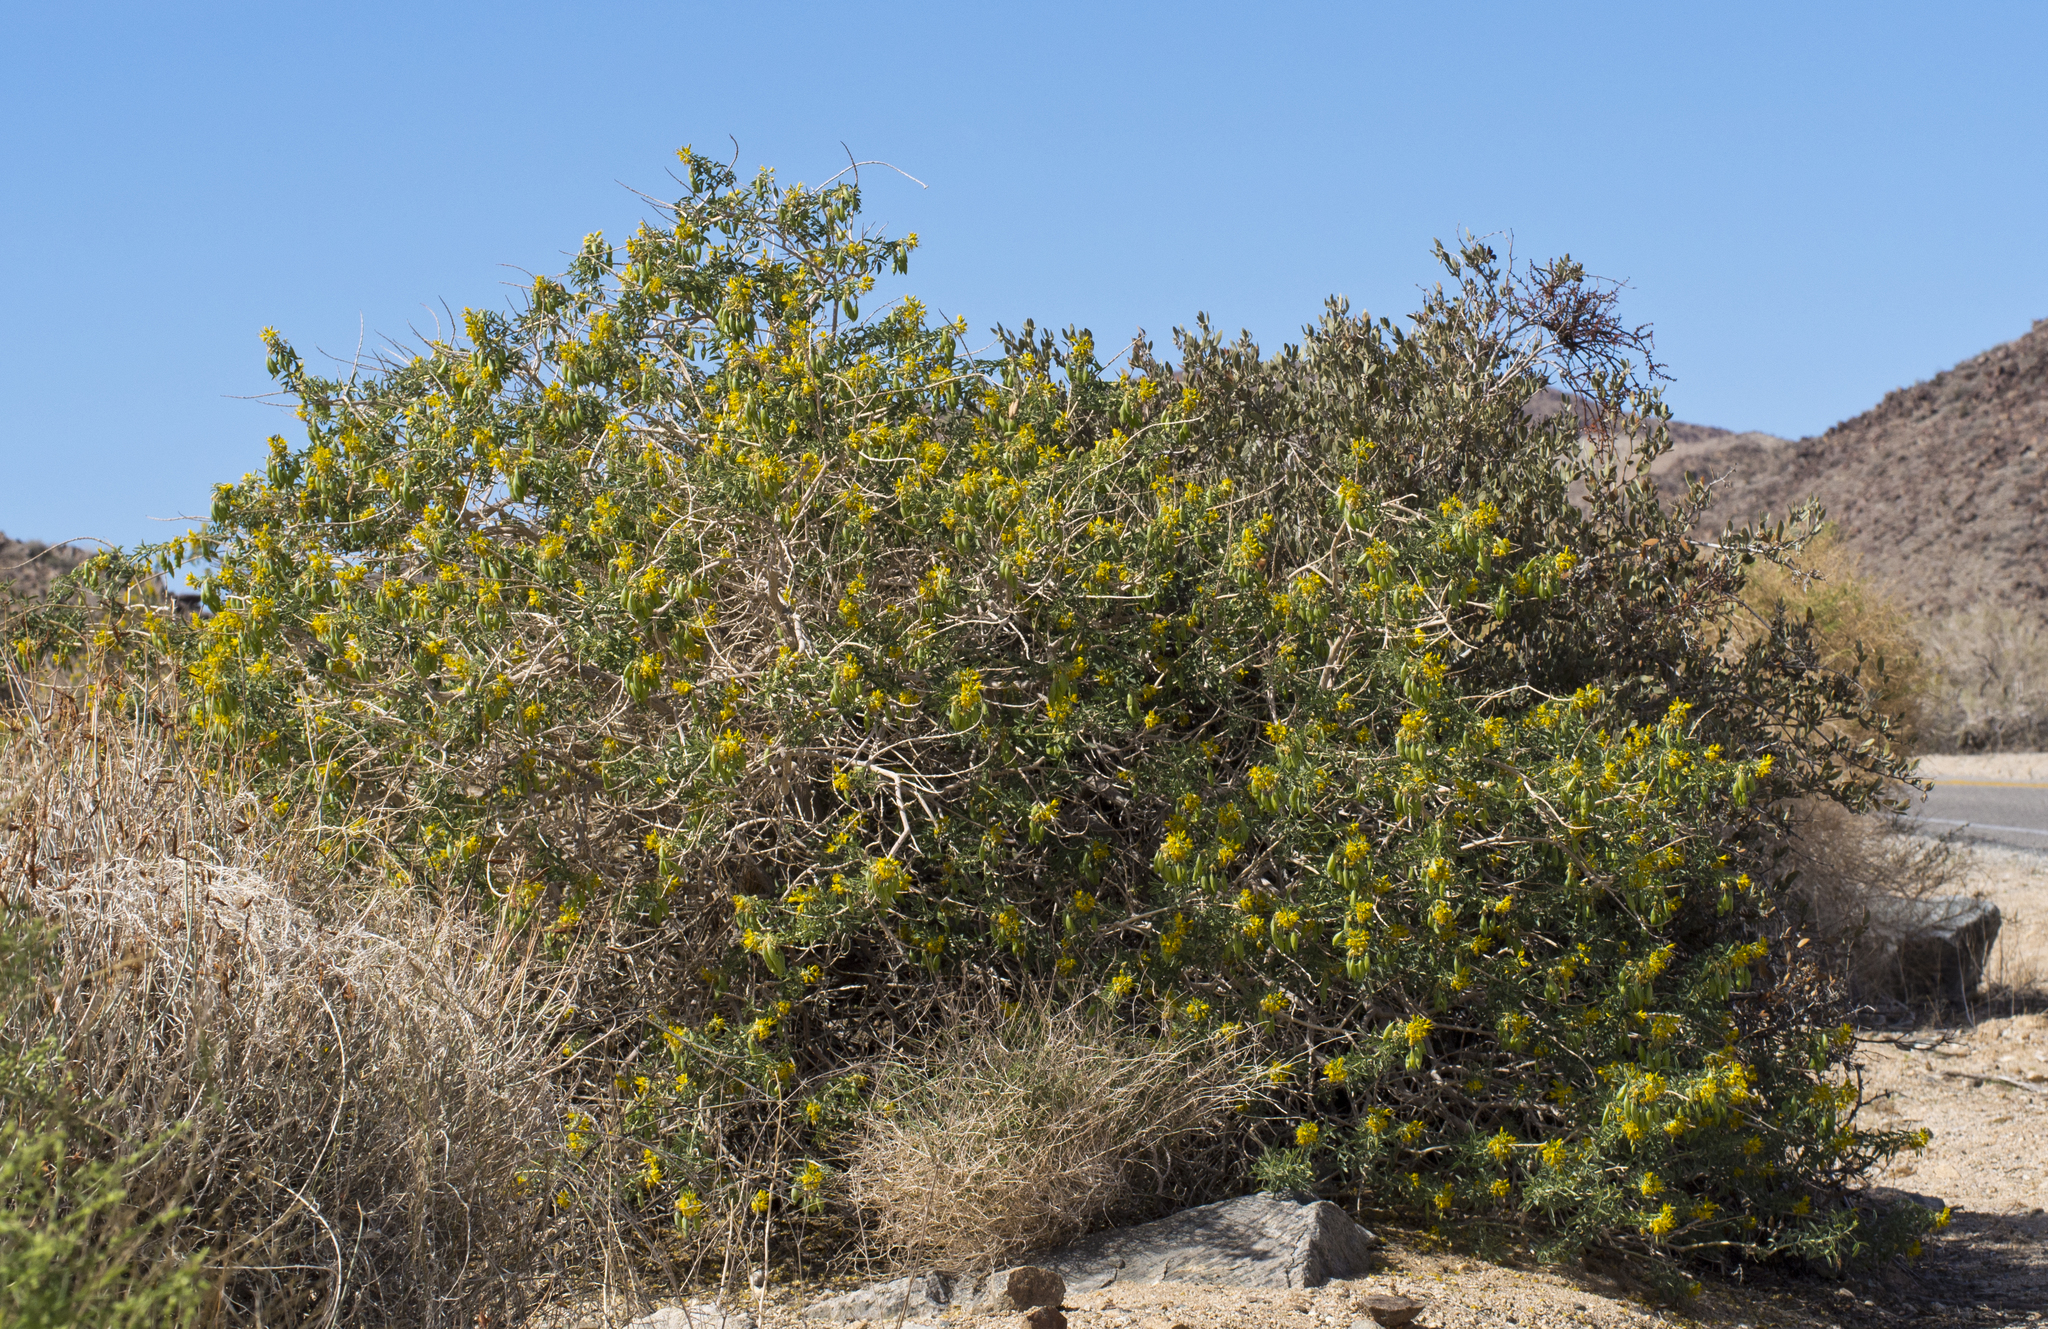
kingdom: Plantae
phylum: Tracheophyta
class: Magnoliopsida
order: Brassicales
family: Cleomaceae
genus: Cleomella
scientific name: Cleomella arborea
